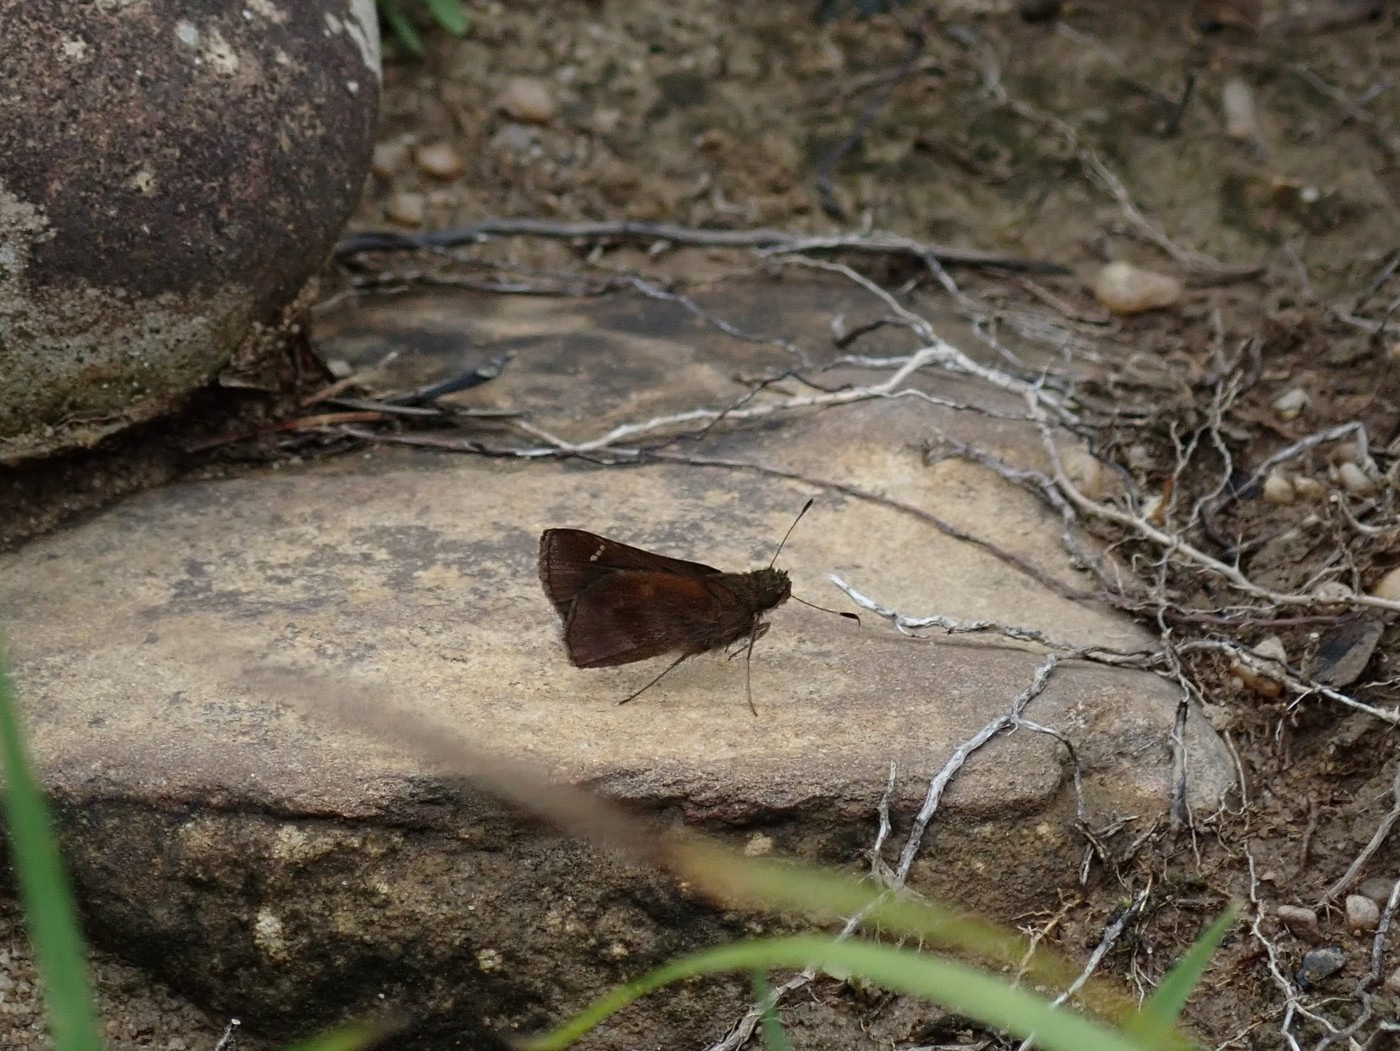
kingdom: Animalia
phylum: Arthropoda
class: Insecta
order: Lepidoptera
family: Hesperiidae
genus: Lerema
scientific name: Lerema accius
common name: Clouded skipper
